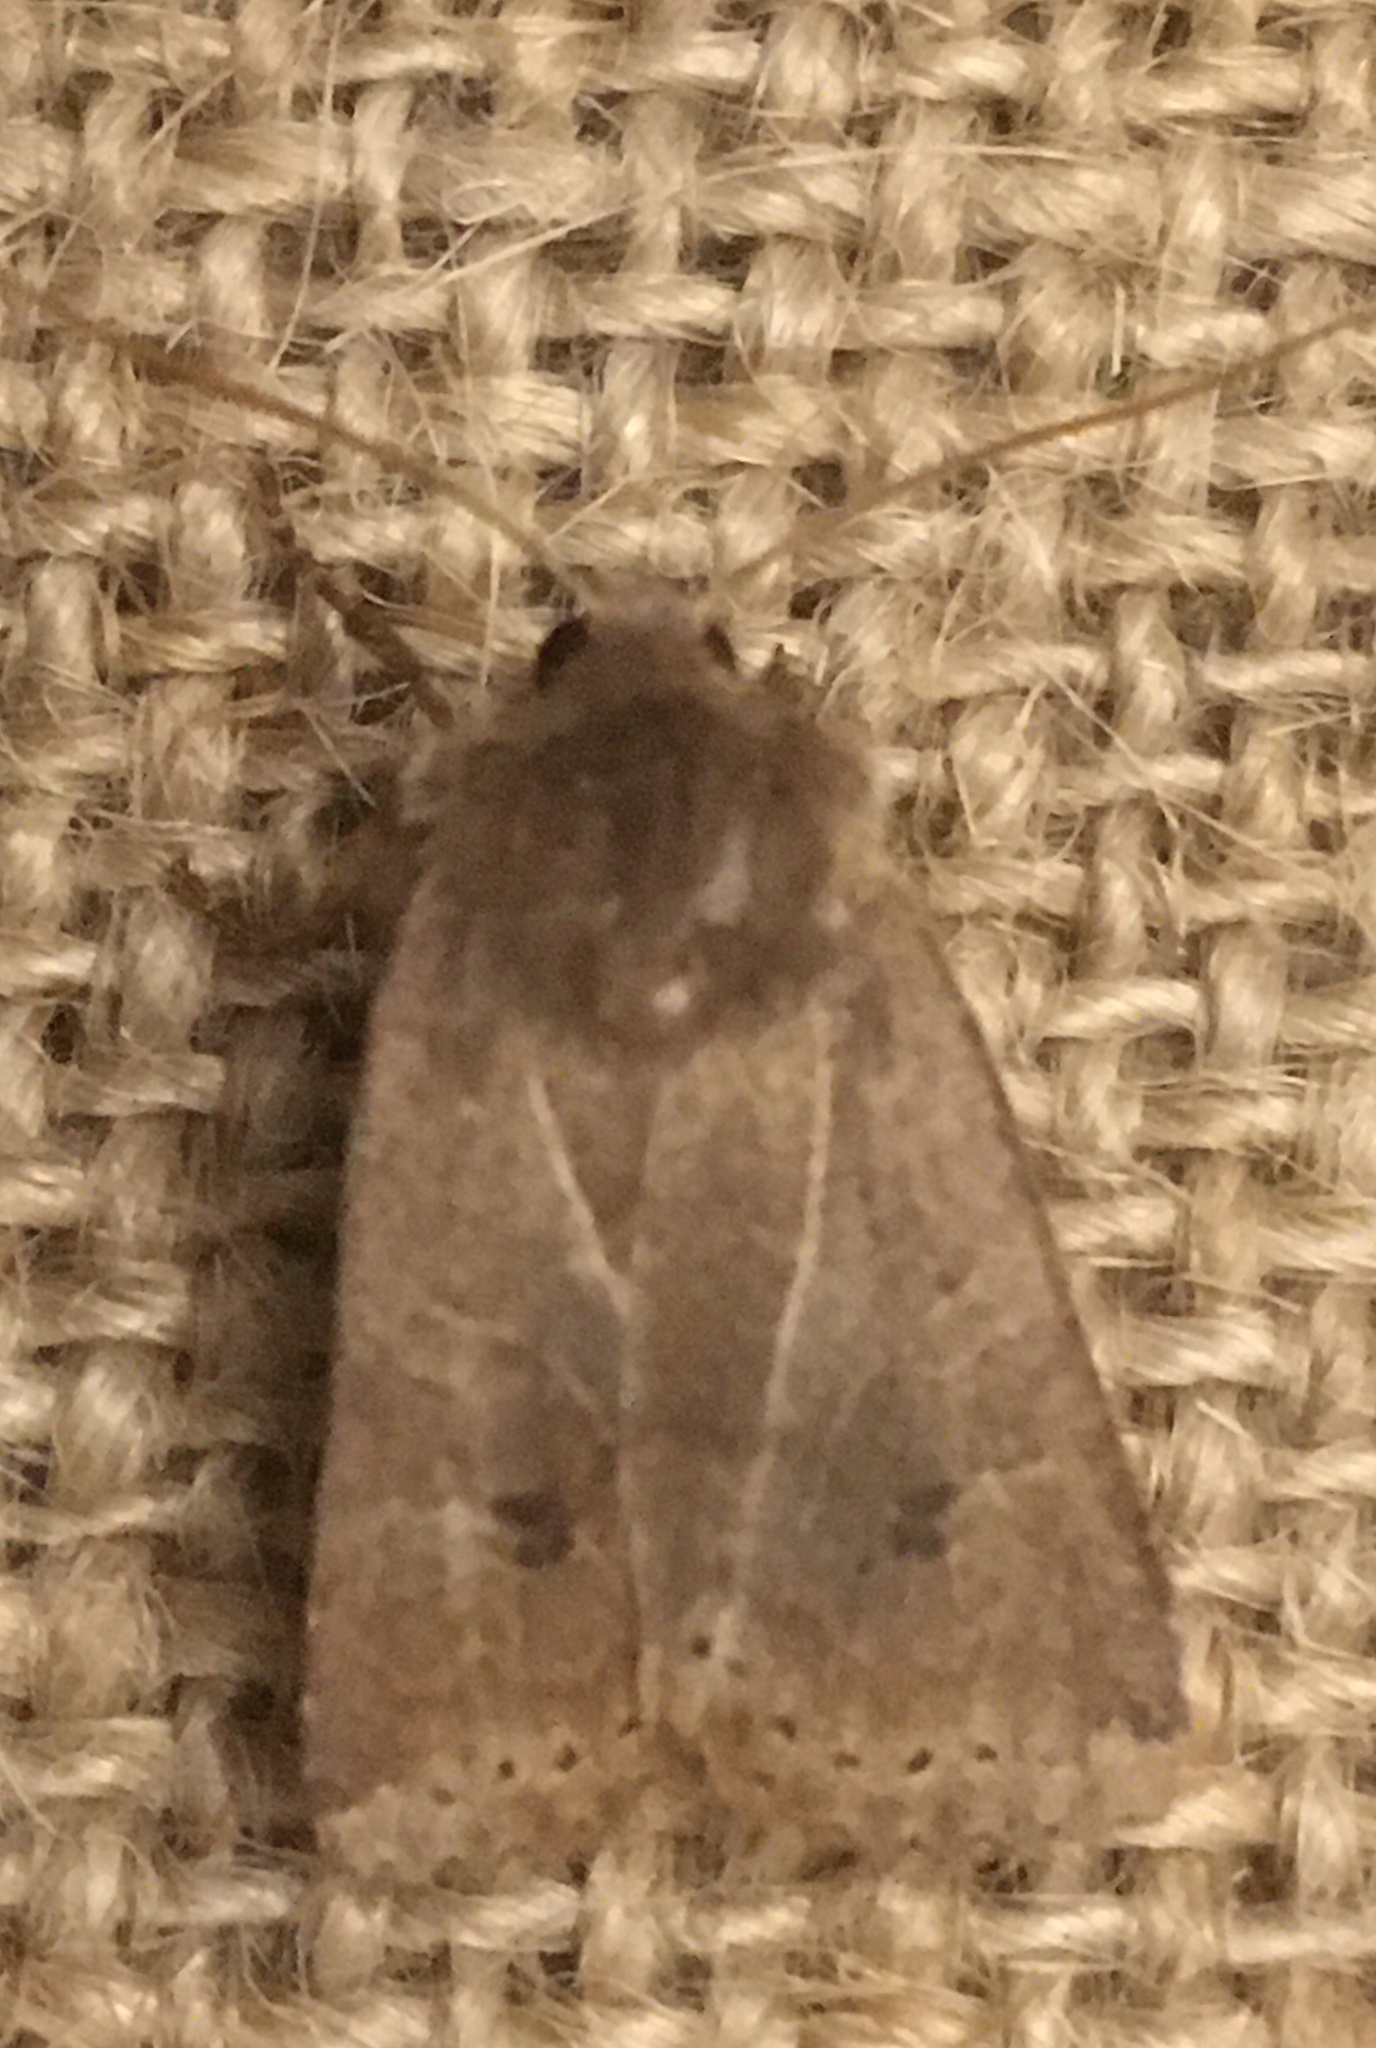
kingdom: Animalia
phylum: Arthropoda
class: Insecta
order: Lepidoptera
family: Noctuidae
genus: Conistra
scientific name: Conistra vaccinii
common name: Chestnut
